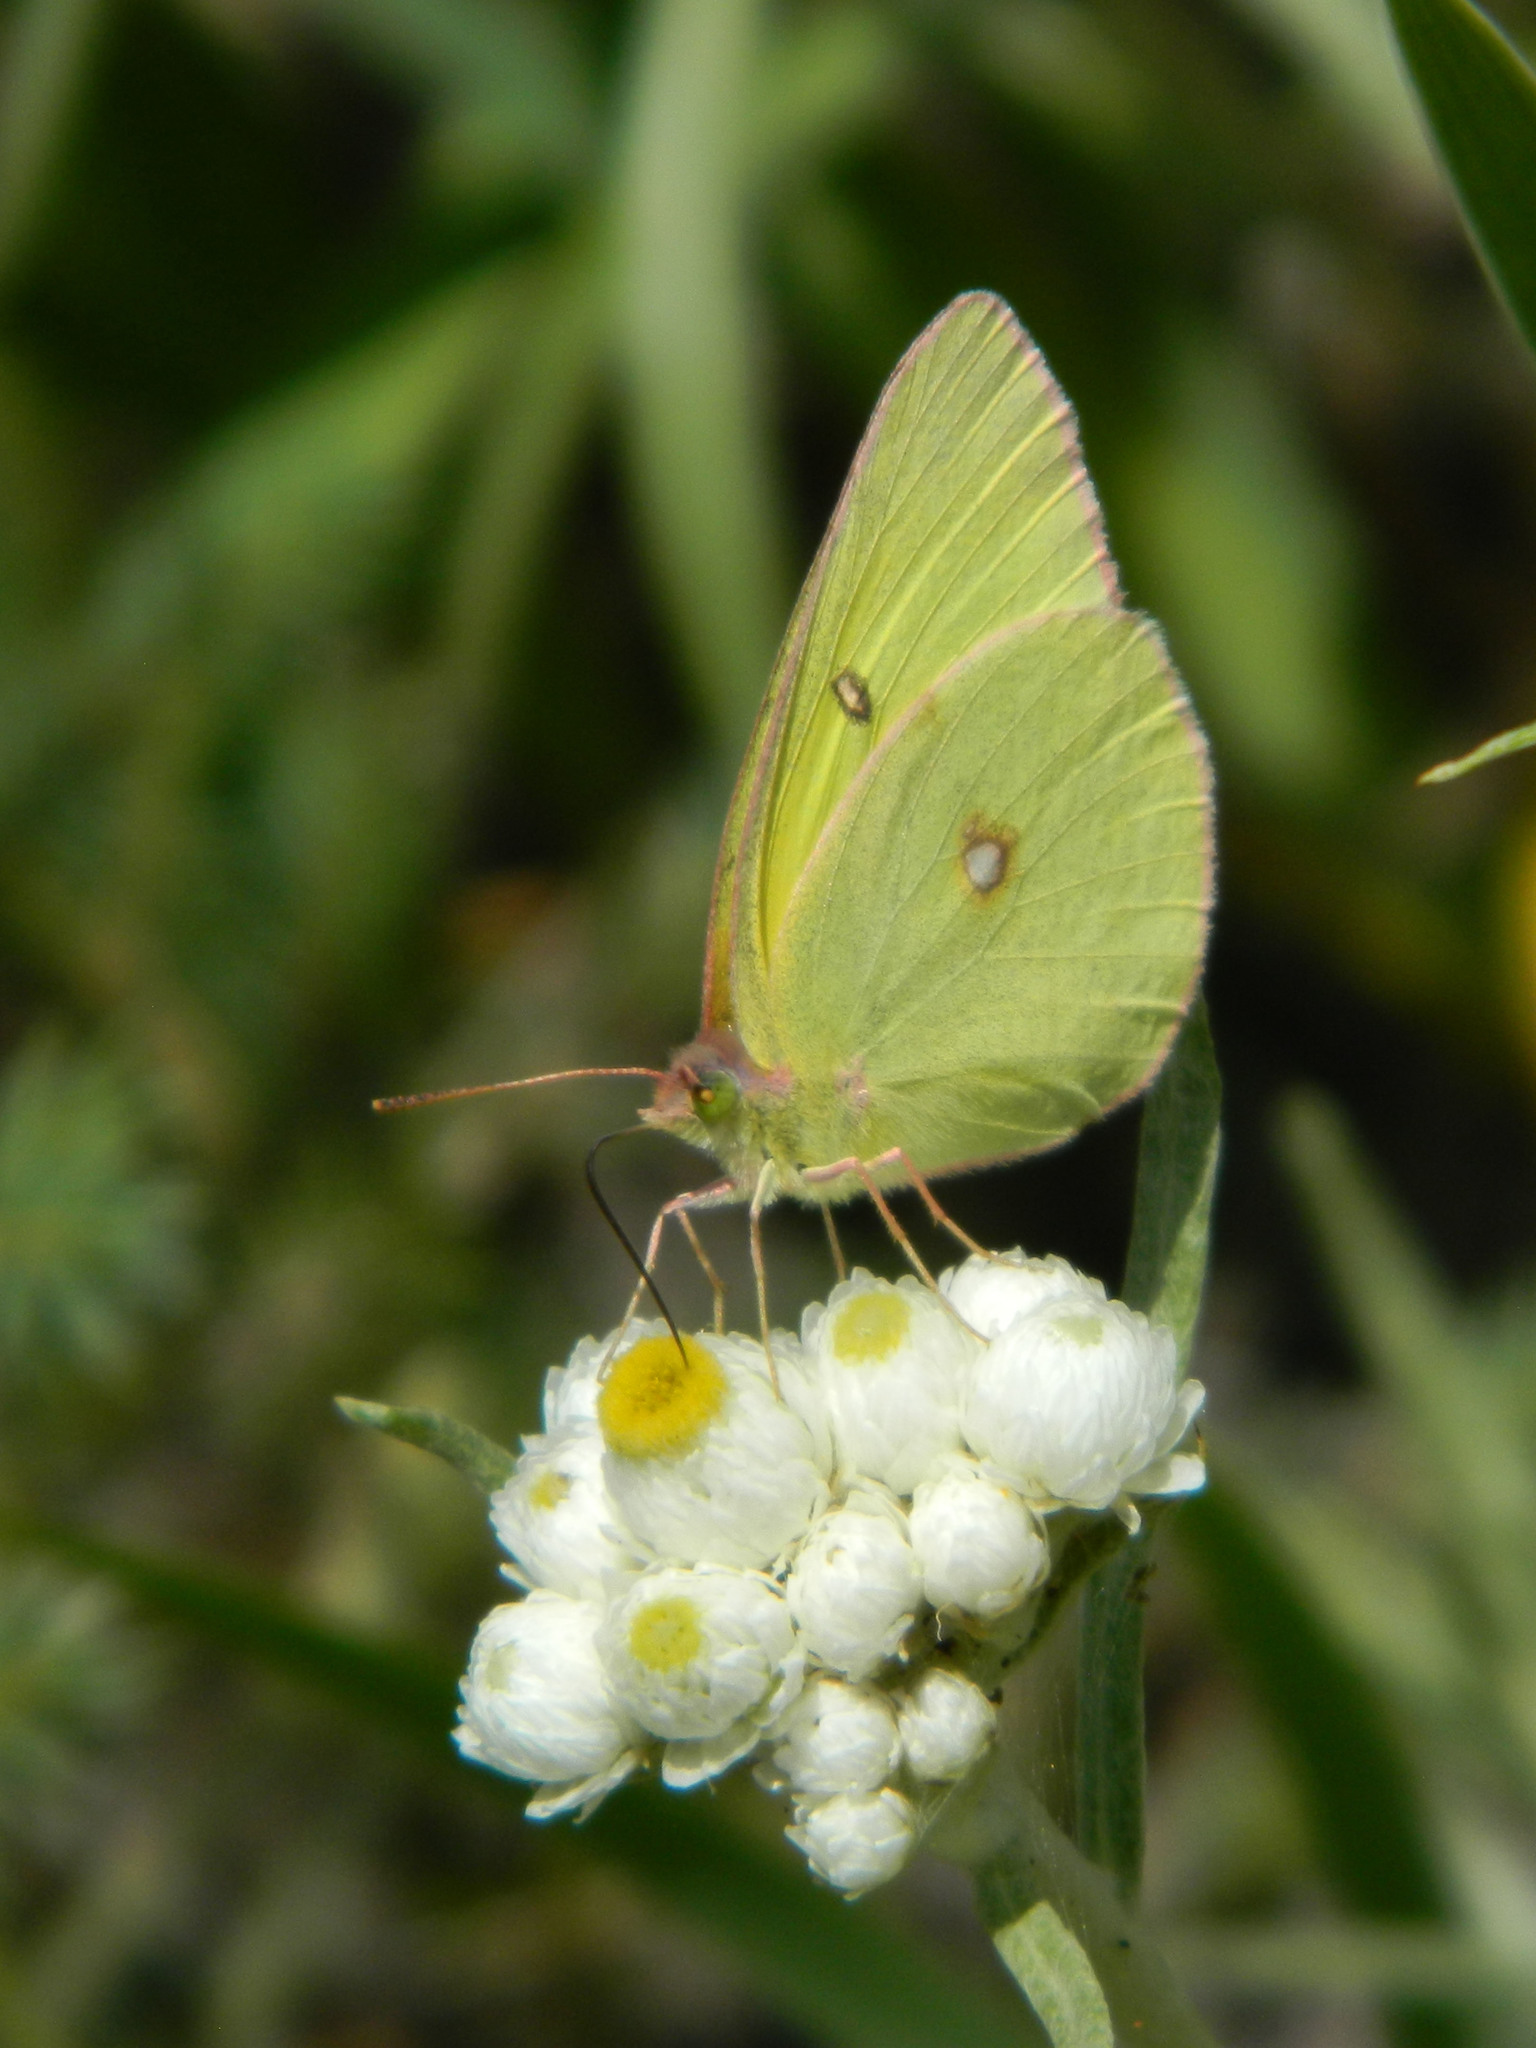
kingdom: Animalia
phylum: Arthropoda
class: Insecta
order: Lepidoptera
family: Pieridae
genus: Colias
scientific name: Colias interior
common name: Pink-edged sulphur
